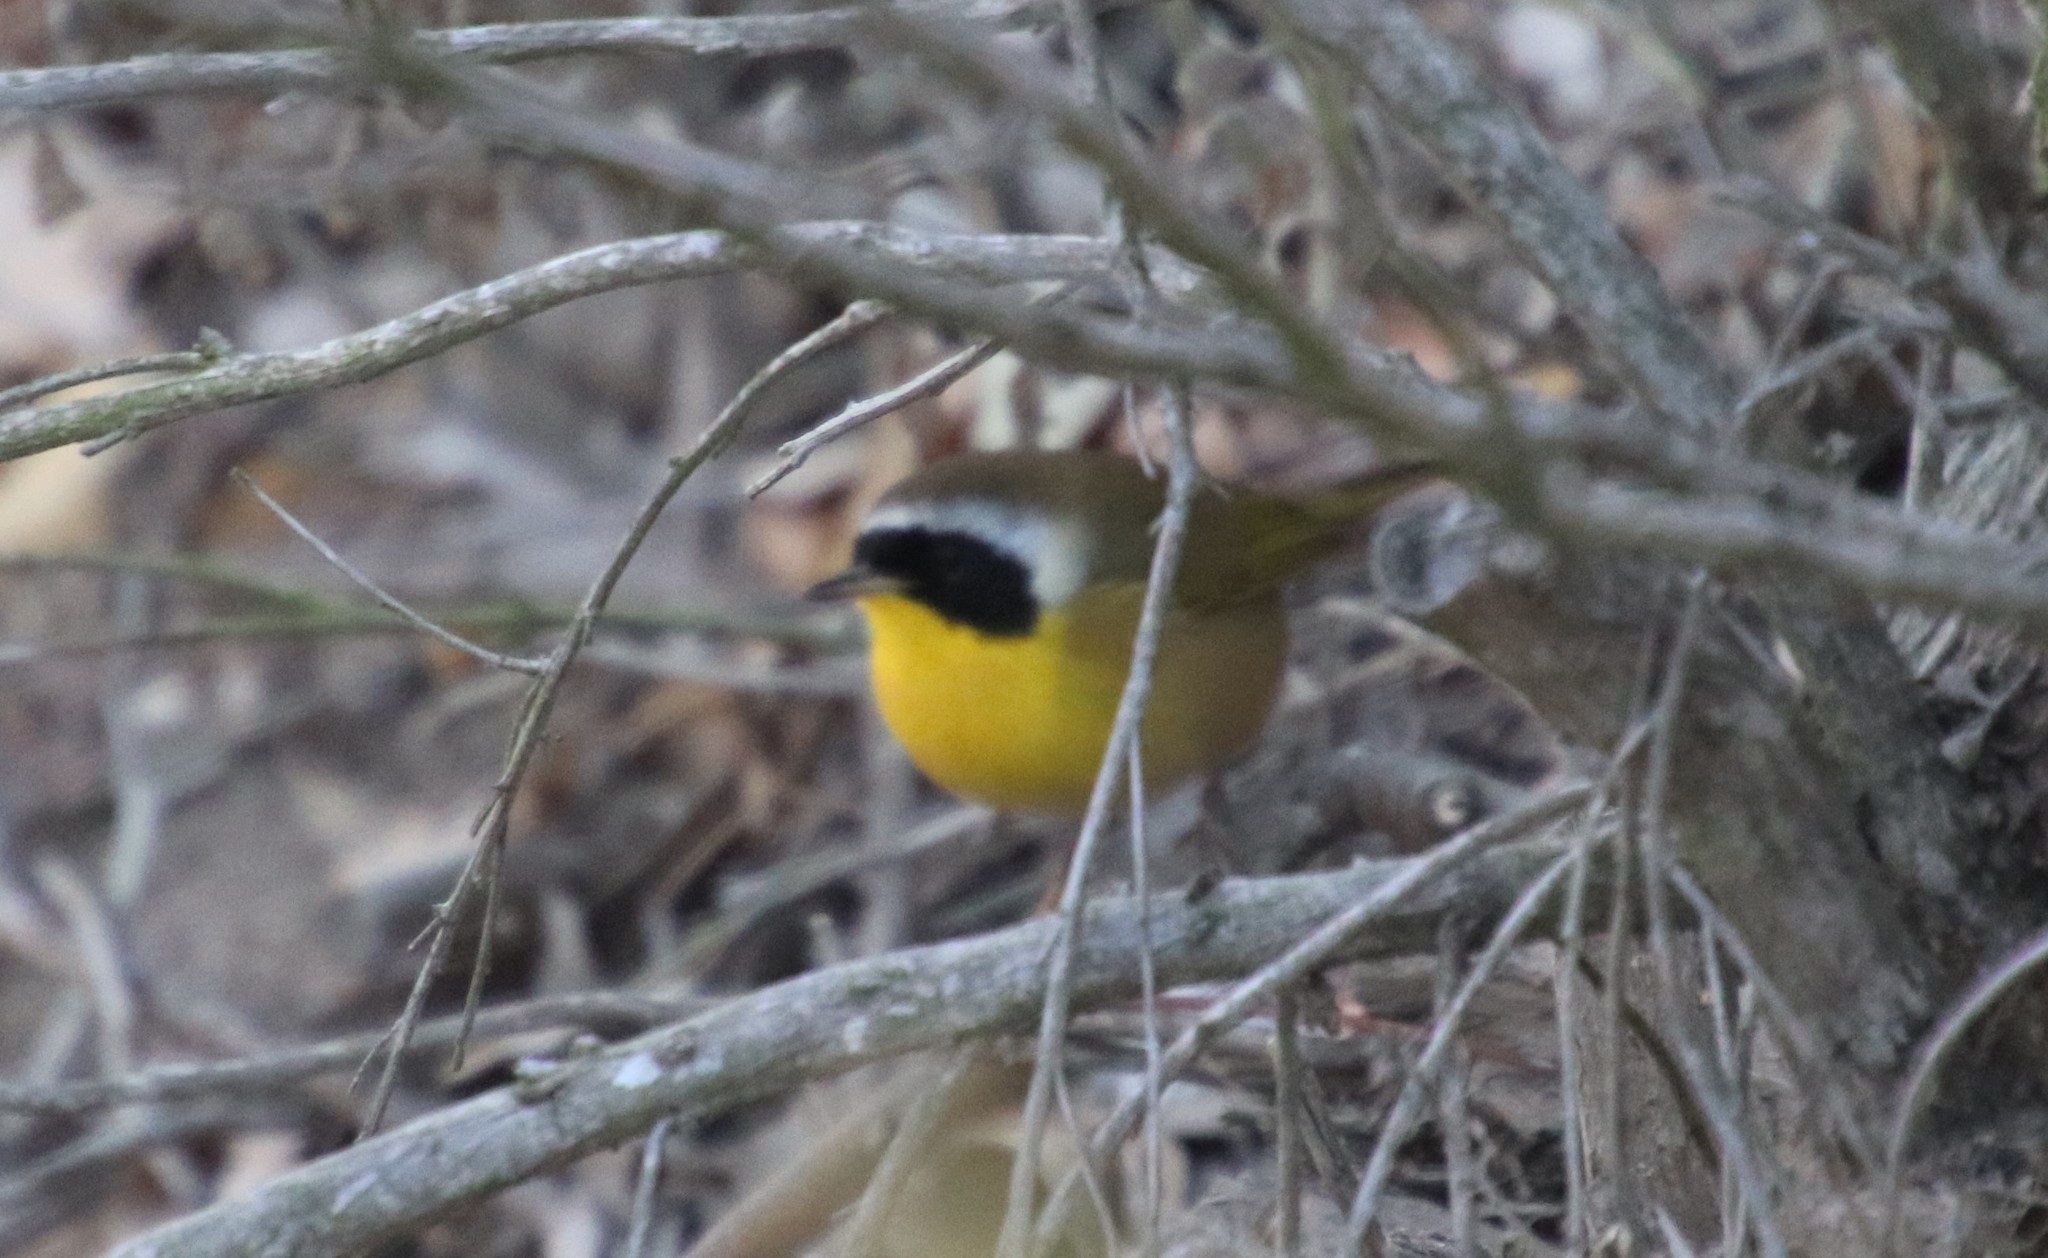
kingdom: Animalia
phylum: Chordata
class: Aves
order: Passeriformes
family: Parulidae
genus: Geothlypis
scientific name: Geothlypis trichas
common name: Common yellowthroat
